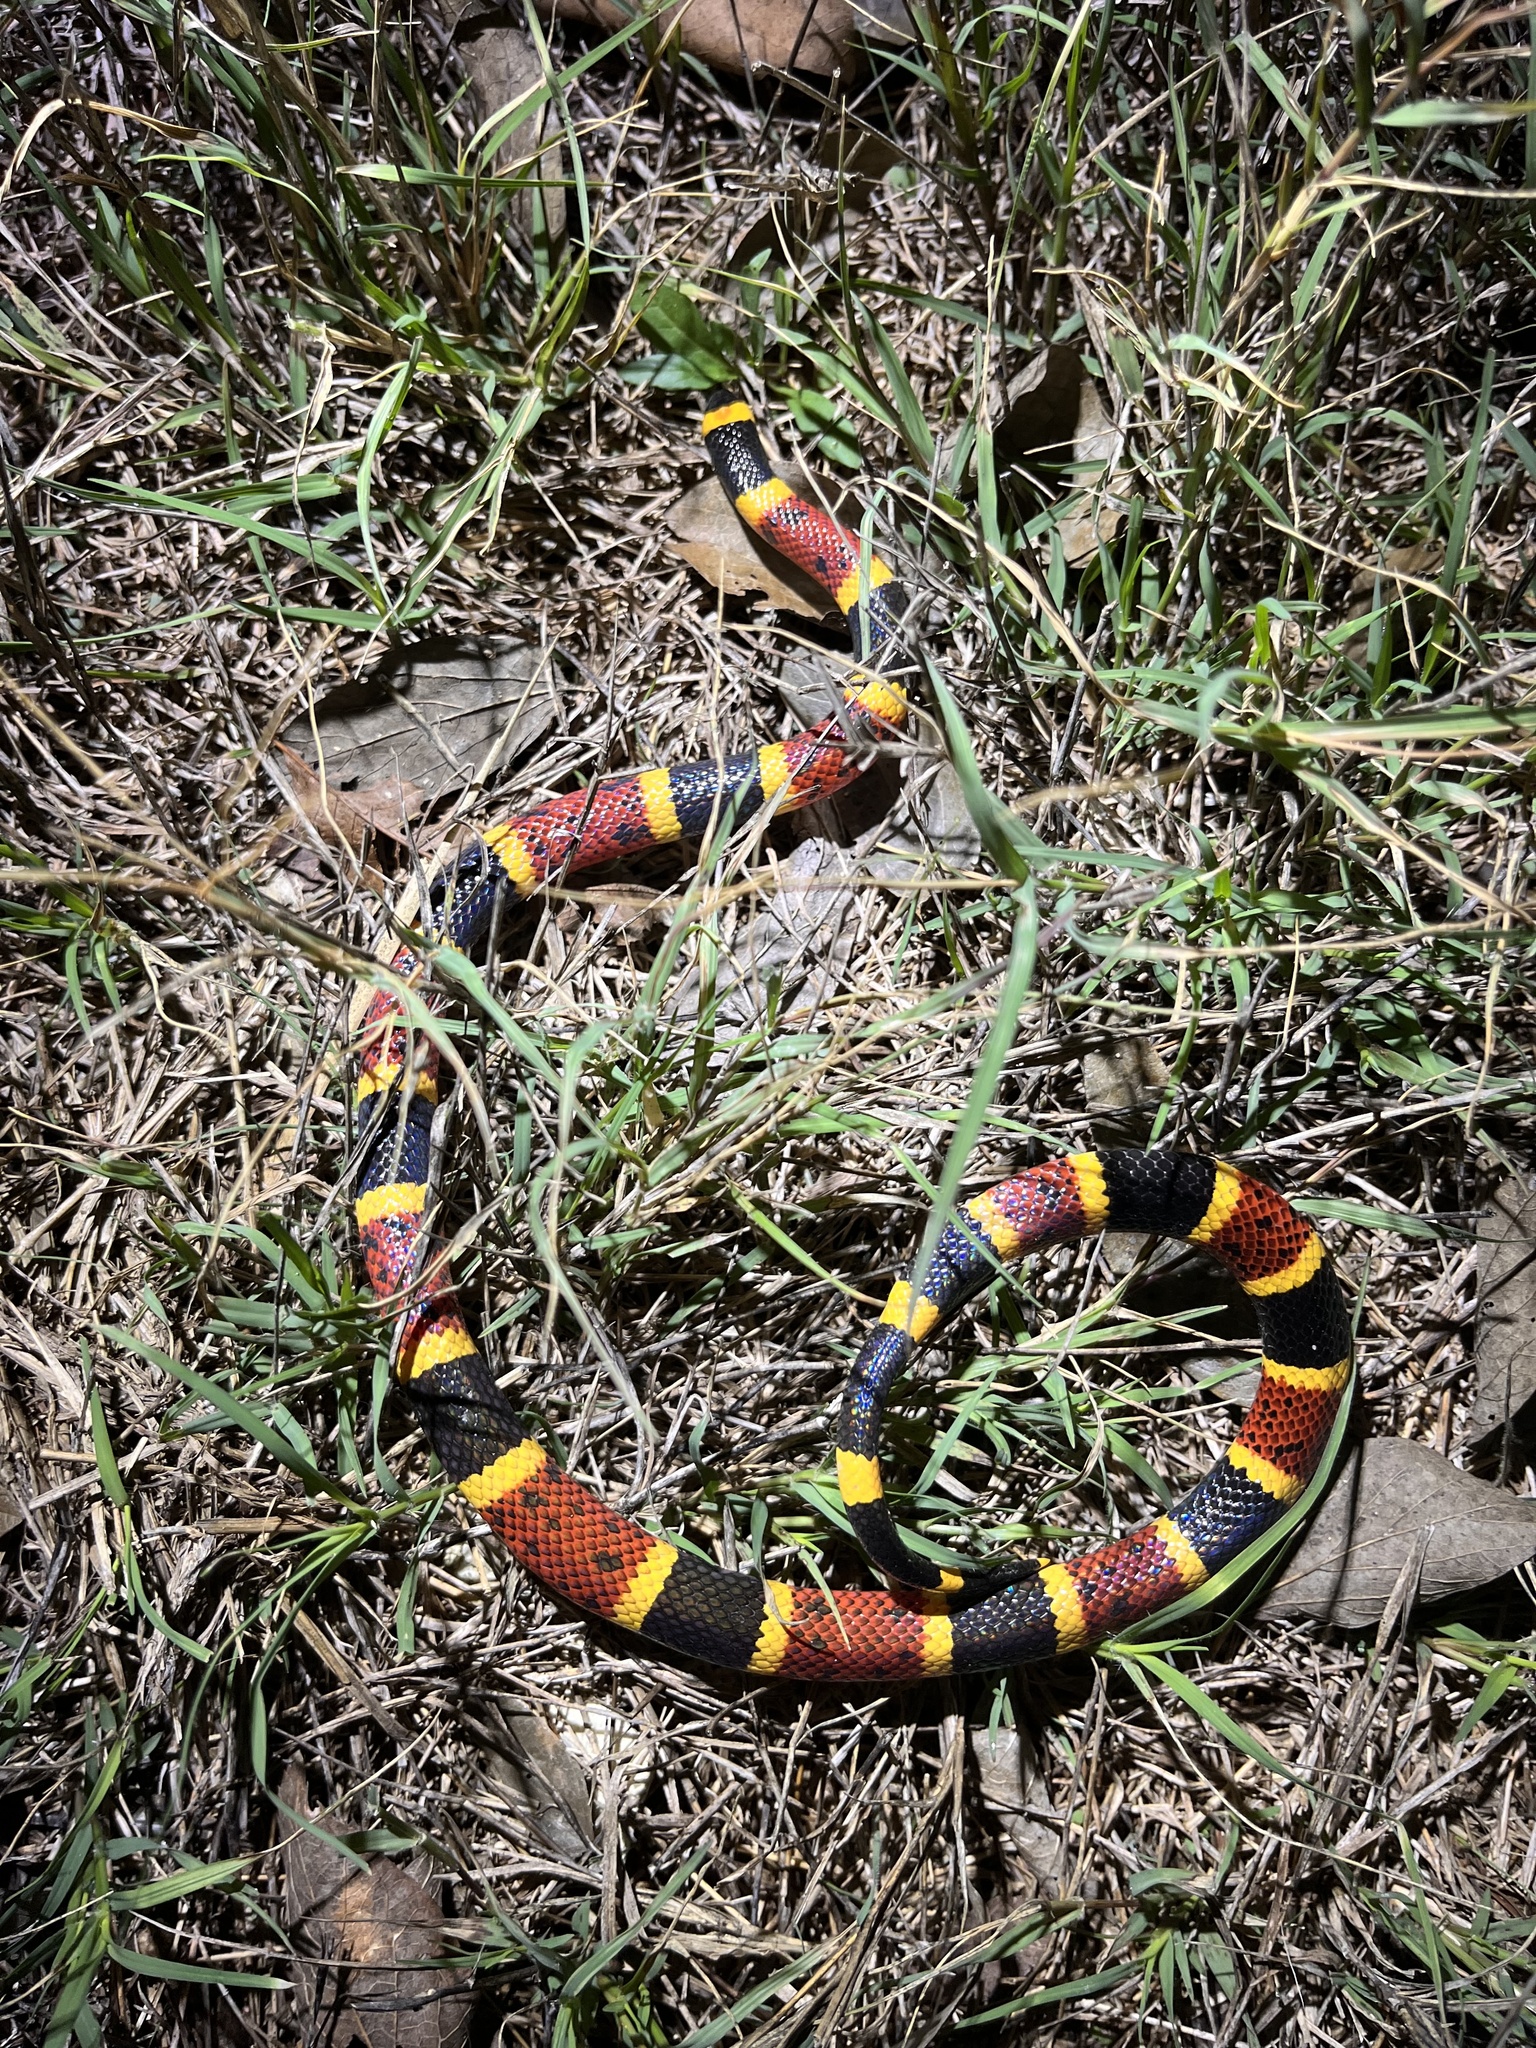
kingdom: Animalia
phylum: Chordata
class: Squamata
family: Elapidae
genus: Micrurus
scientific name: Micrurus tener
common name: Texas coral snake
